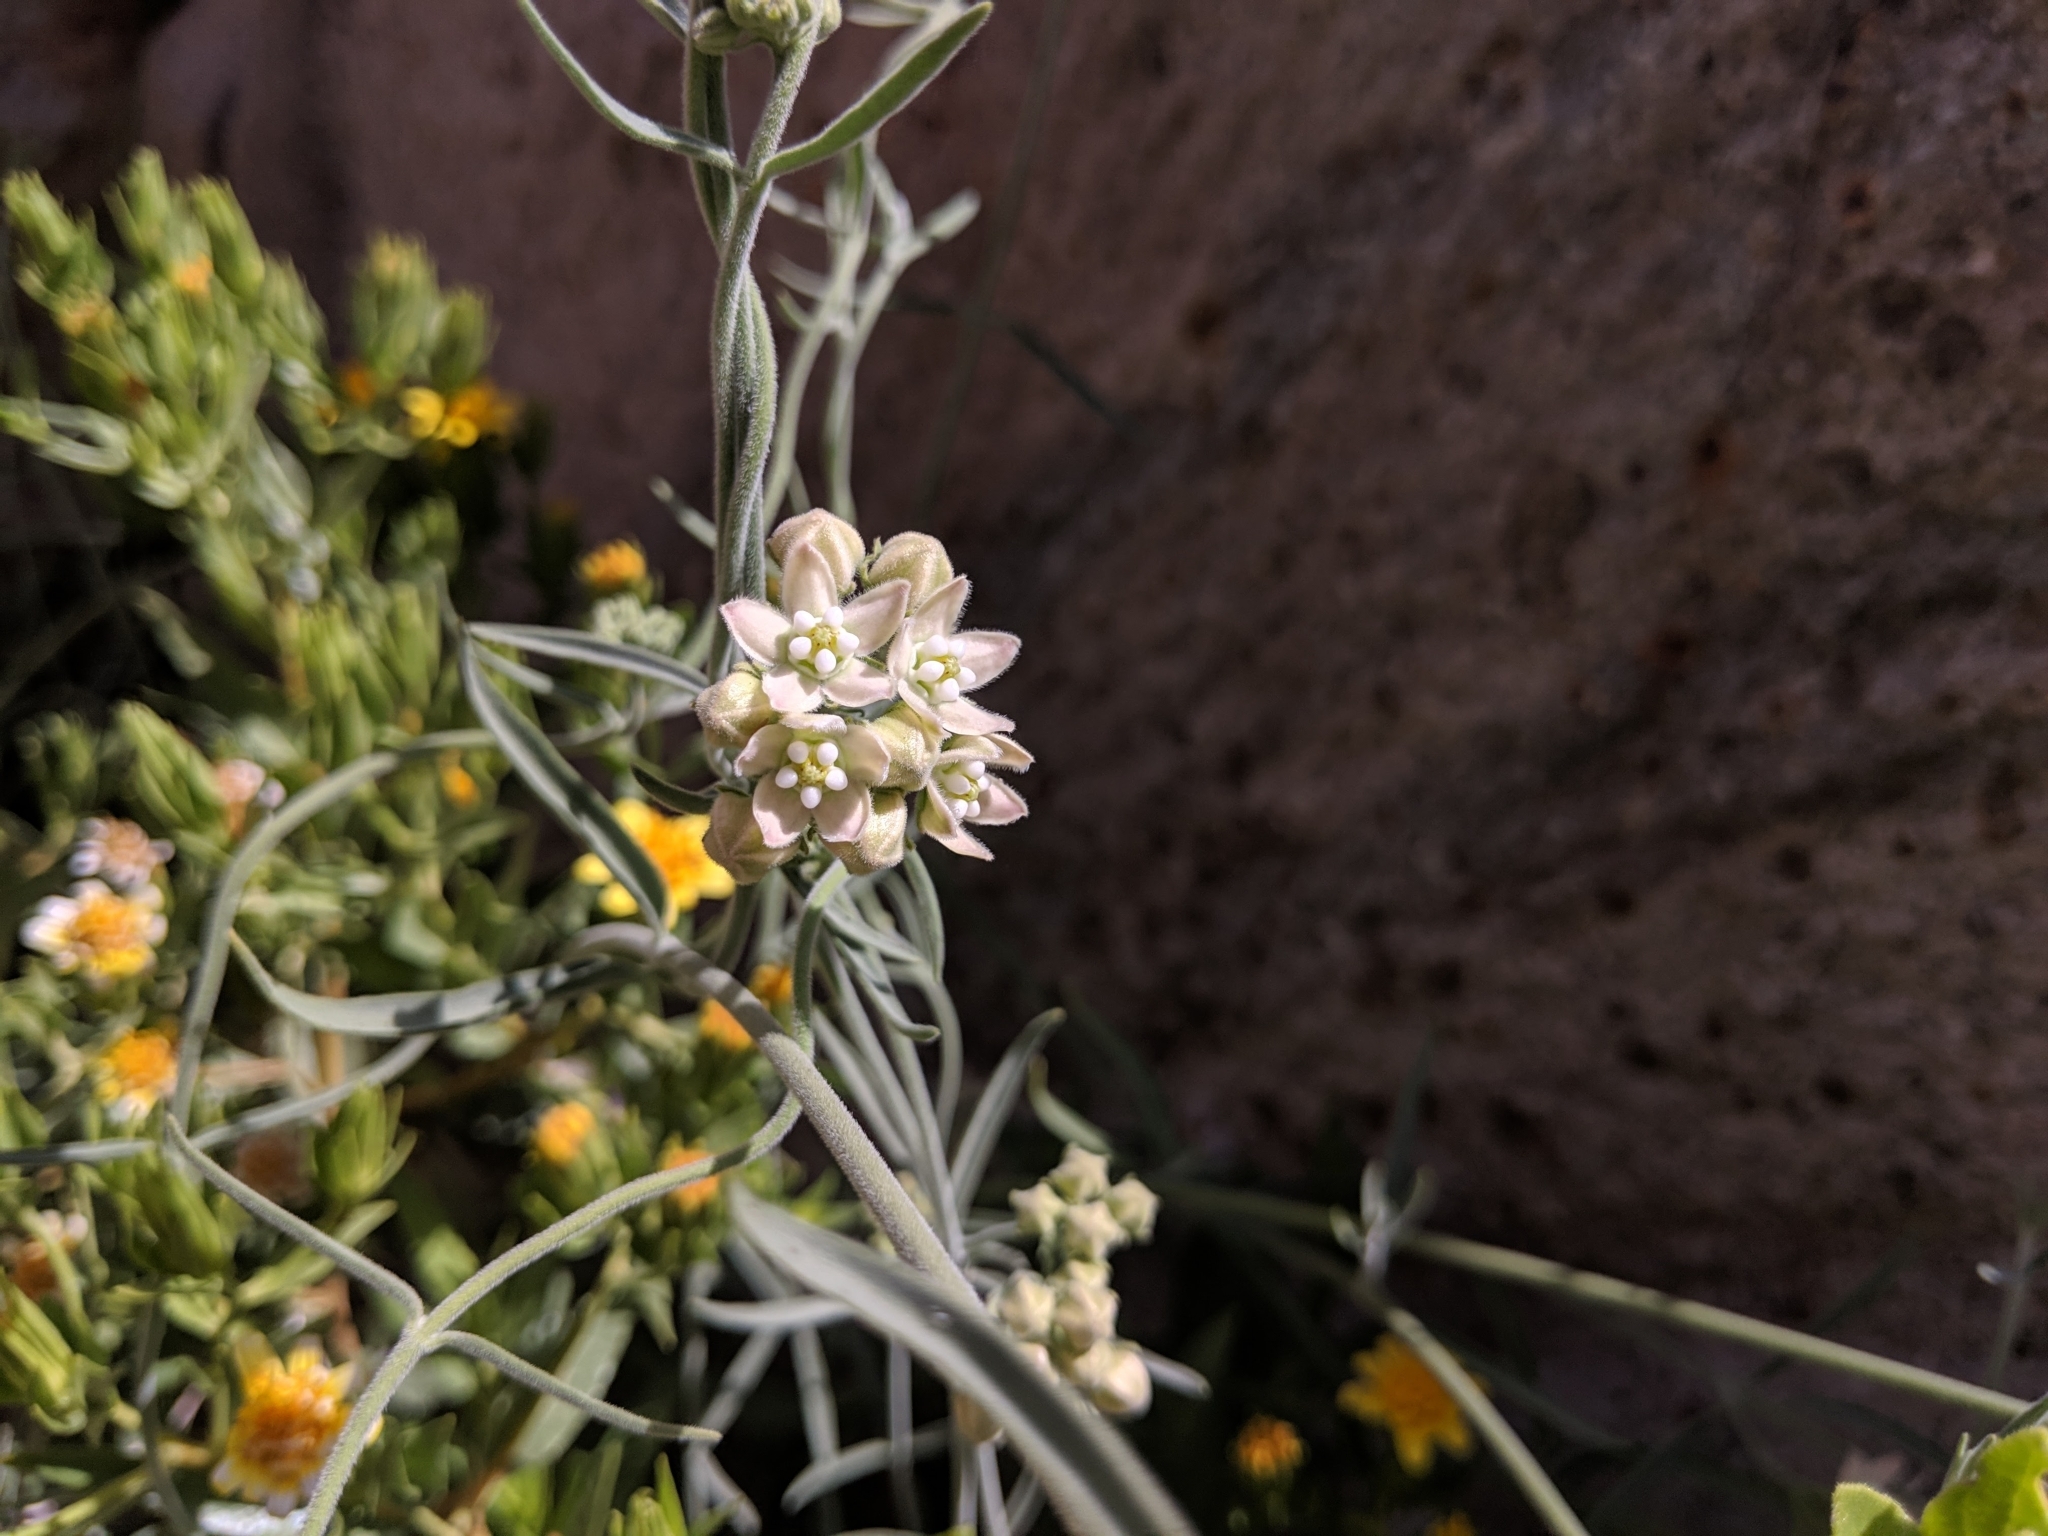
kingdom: Plantae
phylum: Tracheophyta
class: Magnoliopsida
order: Gentianales
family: Apocynaceae
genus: Funastrum
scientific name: Funastrum hirtellum
